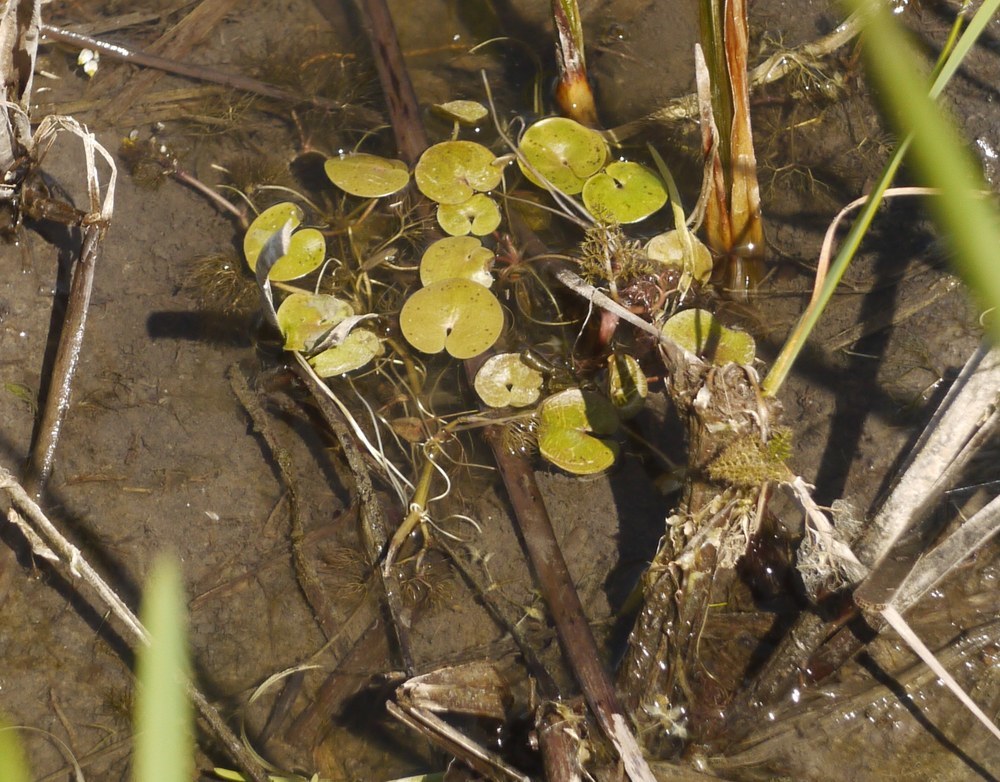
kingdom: Plantae
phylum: Tracheophyta
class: Liliopsida
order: Alismatales
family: Hydrocharitaceae
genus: Hydrocharis
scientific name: Hydrocharis morsus-ranae
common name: Frogbit
